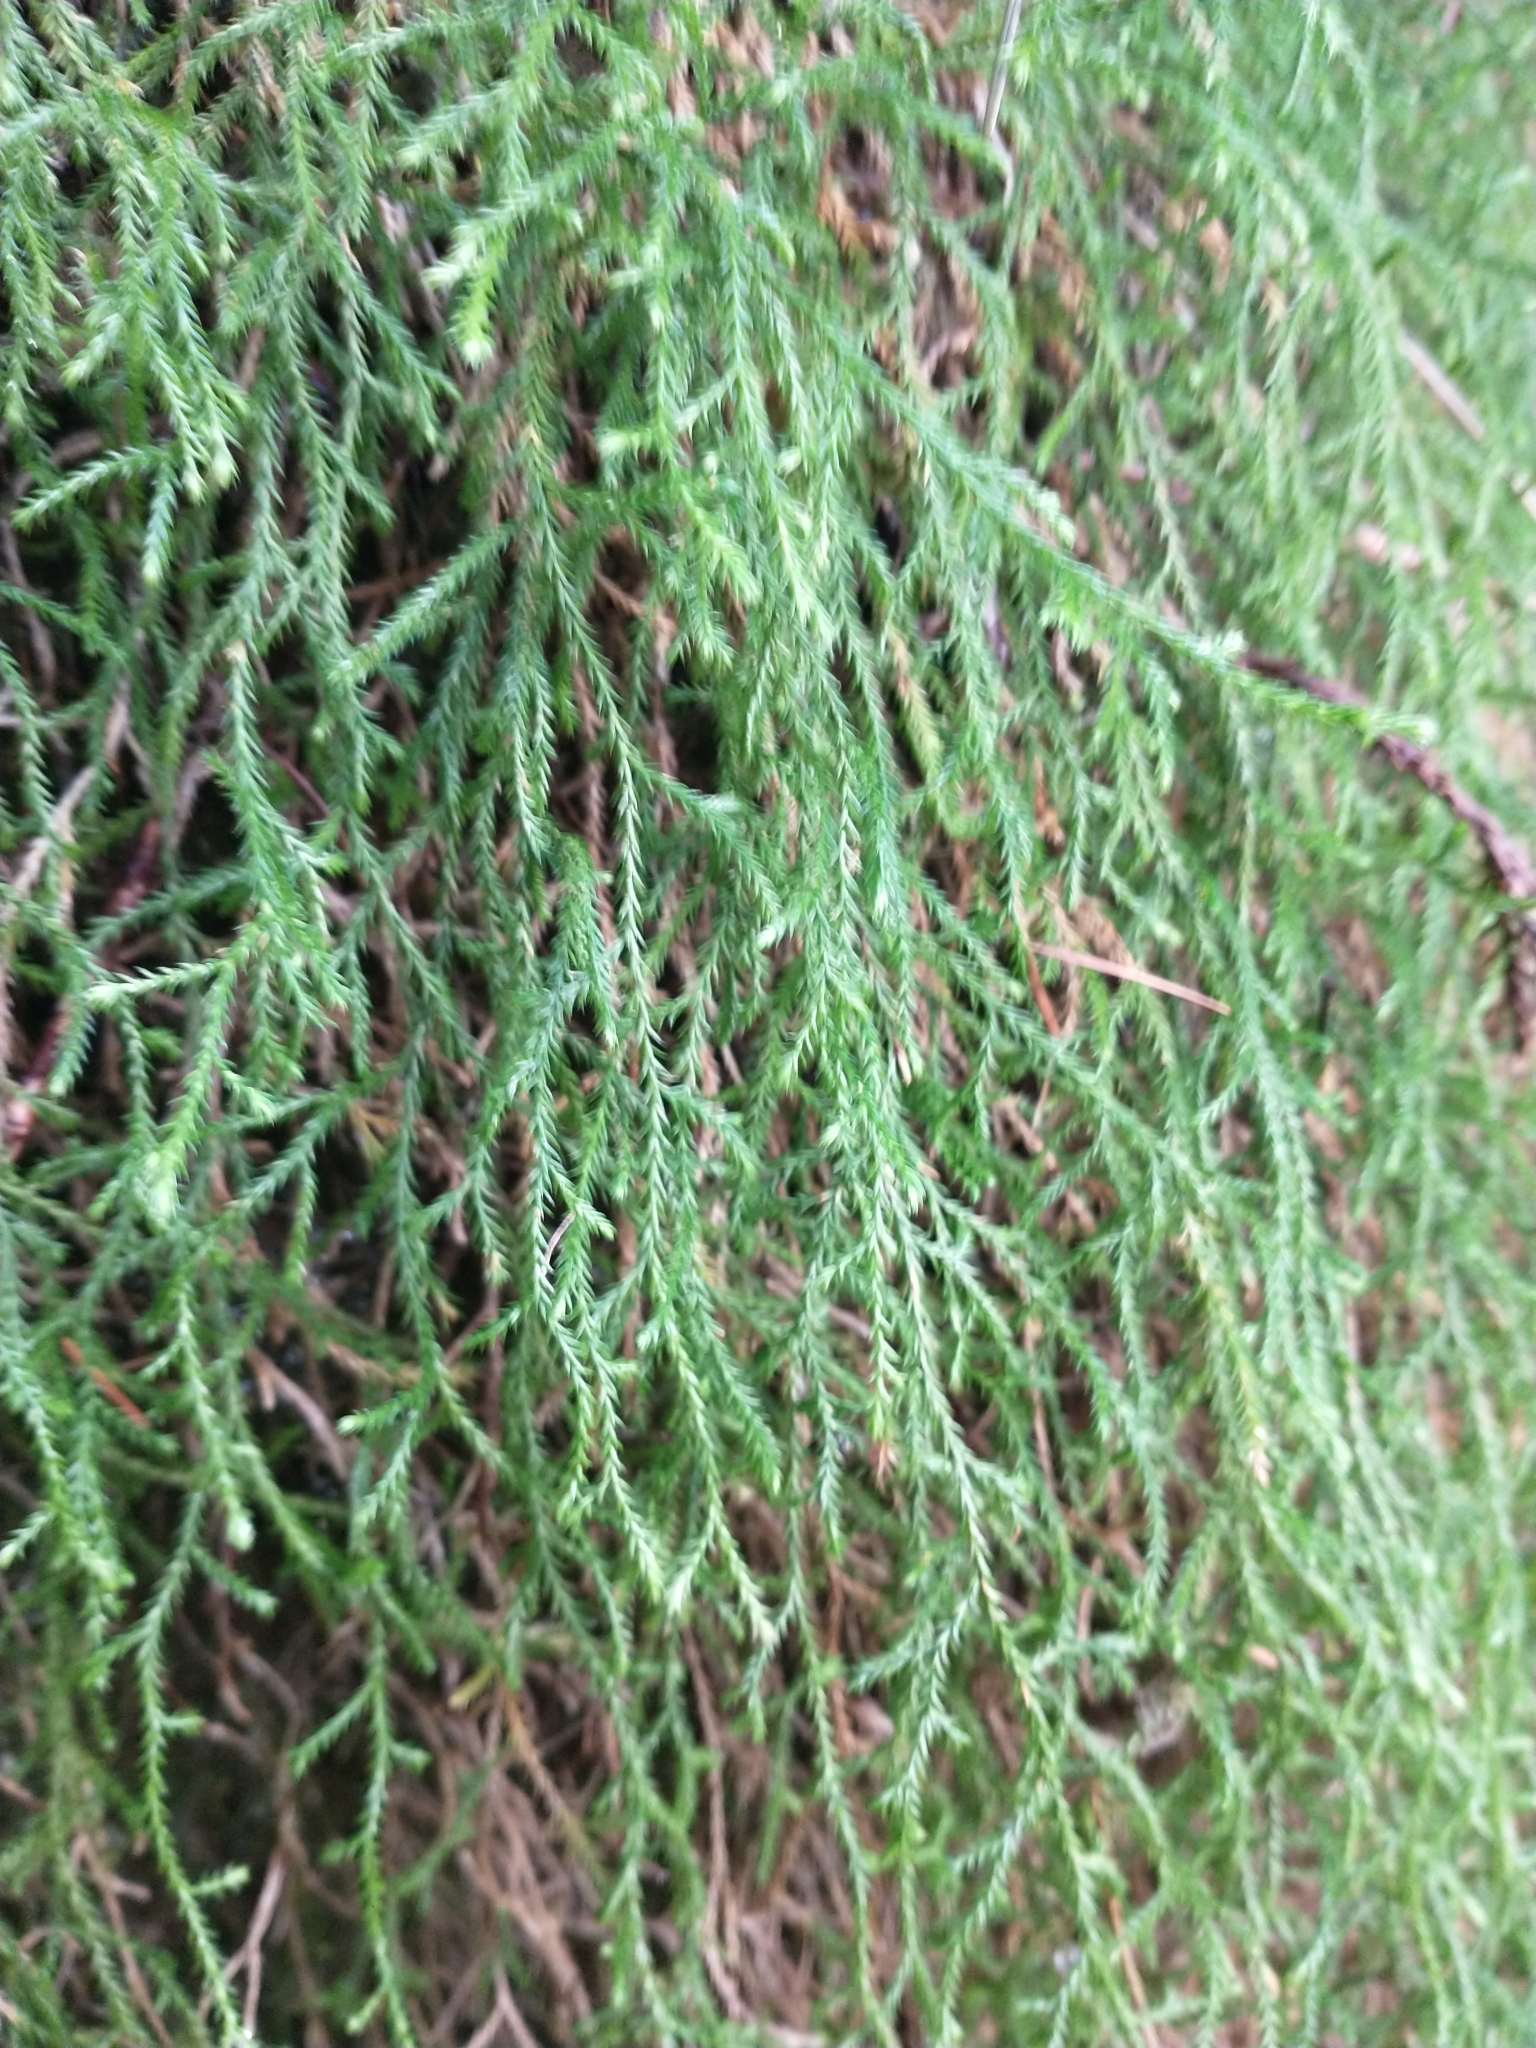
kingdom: Plantae
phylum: Tracheophyta
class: Lycopodiopsida
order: Selaginellales
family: Selaginellaceae
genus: Selaginella
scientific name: Selaginella oregana
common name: Oregon selaginella
